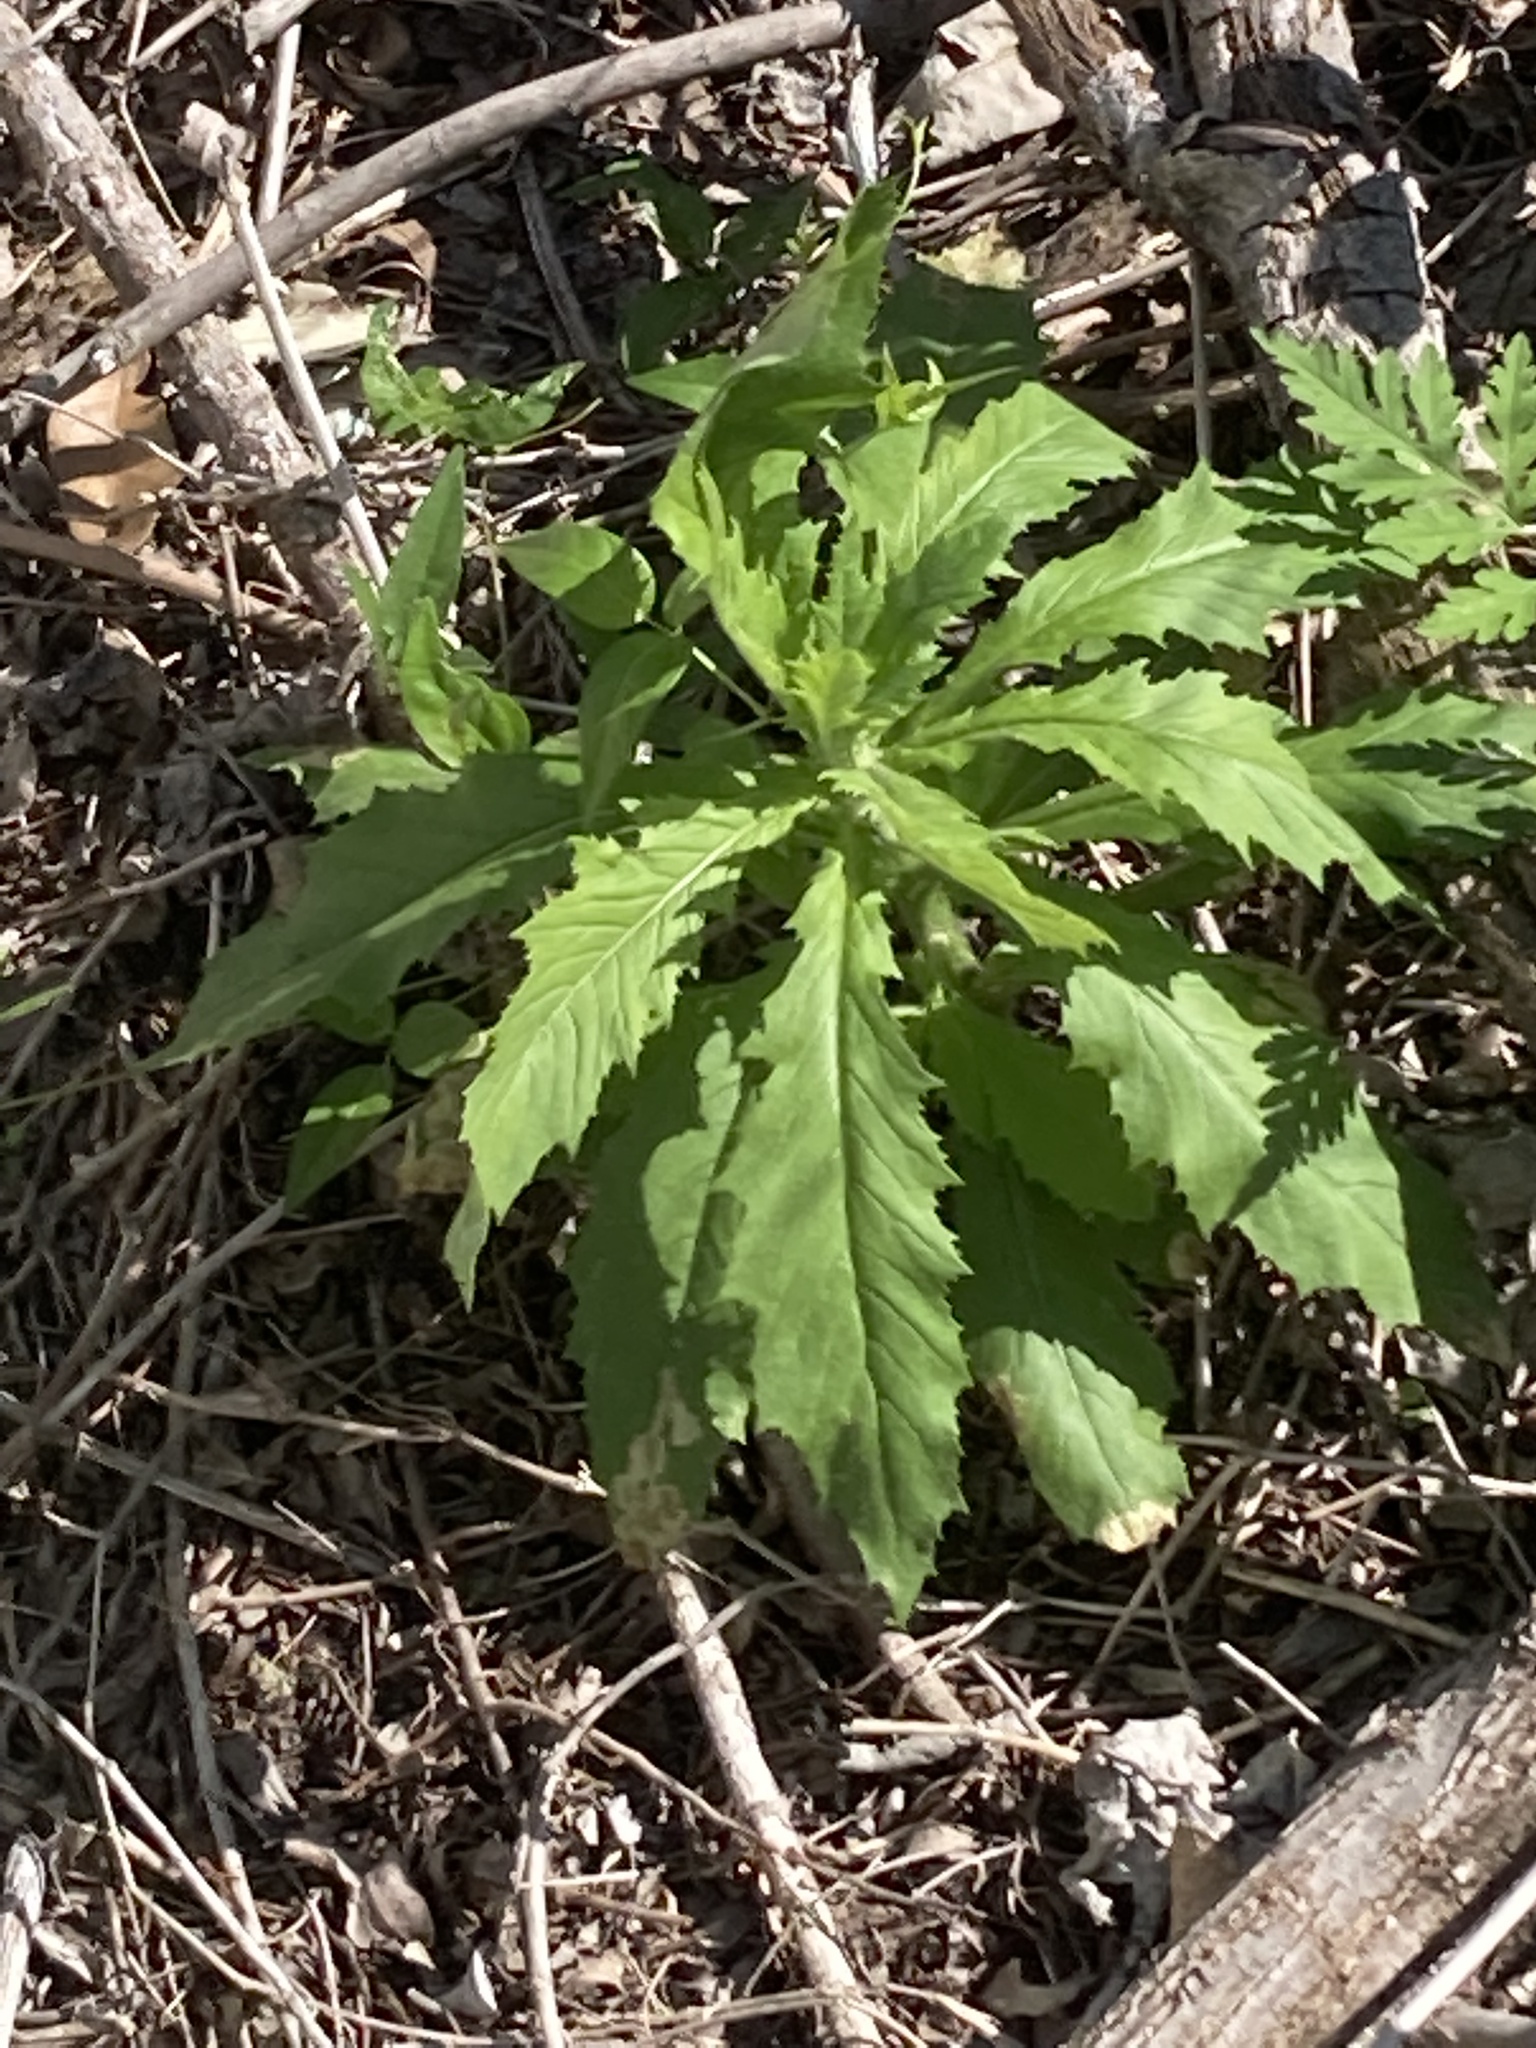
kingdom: Plantae
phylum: Tracheophyta
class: Magnoliopsida
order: Asterales
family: Asteraceae
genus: Erechtites
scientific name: Erechtites hieraciifolius
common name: American burnweed
